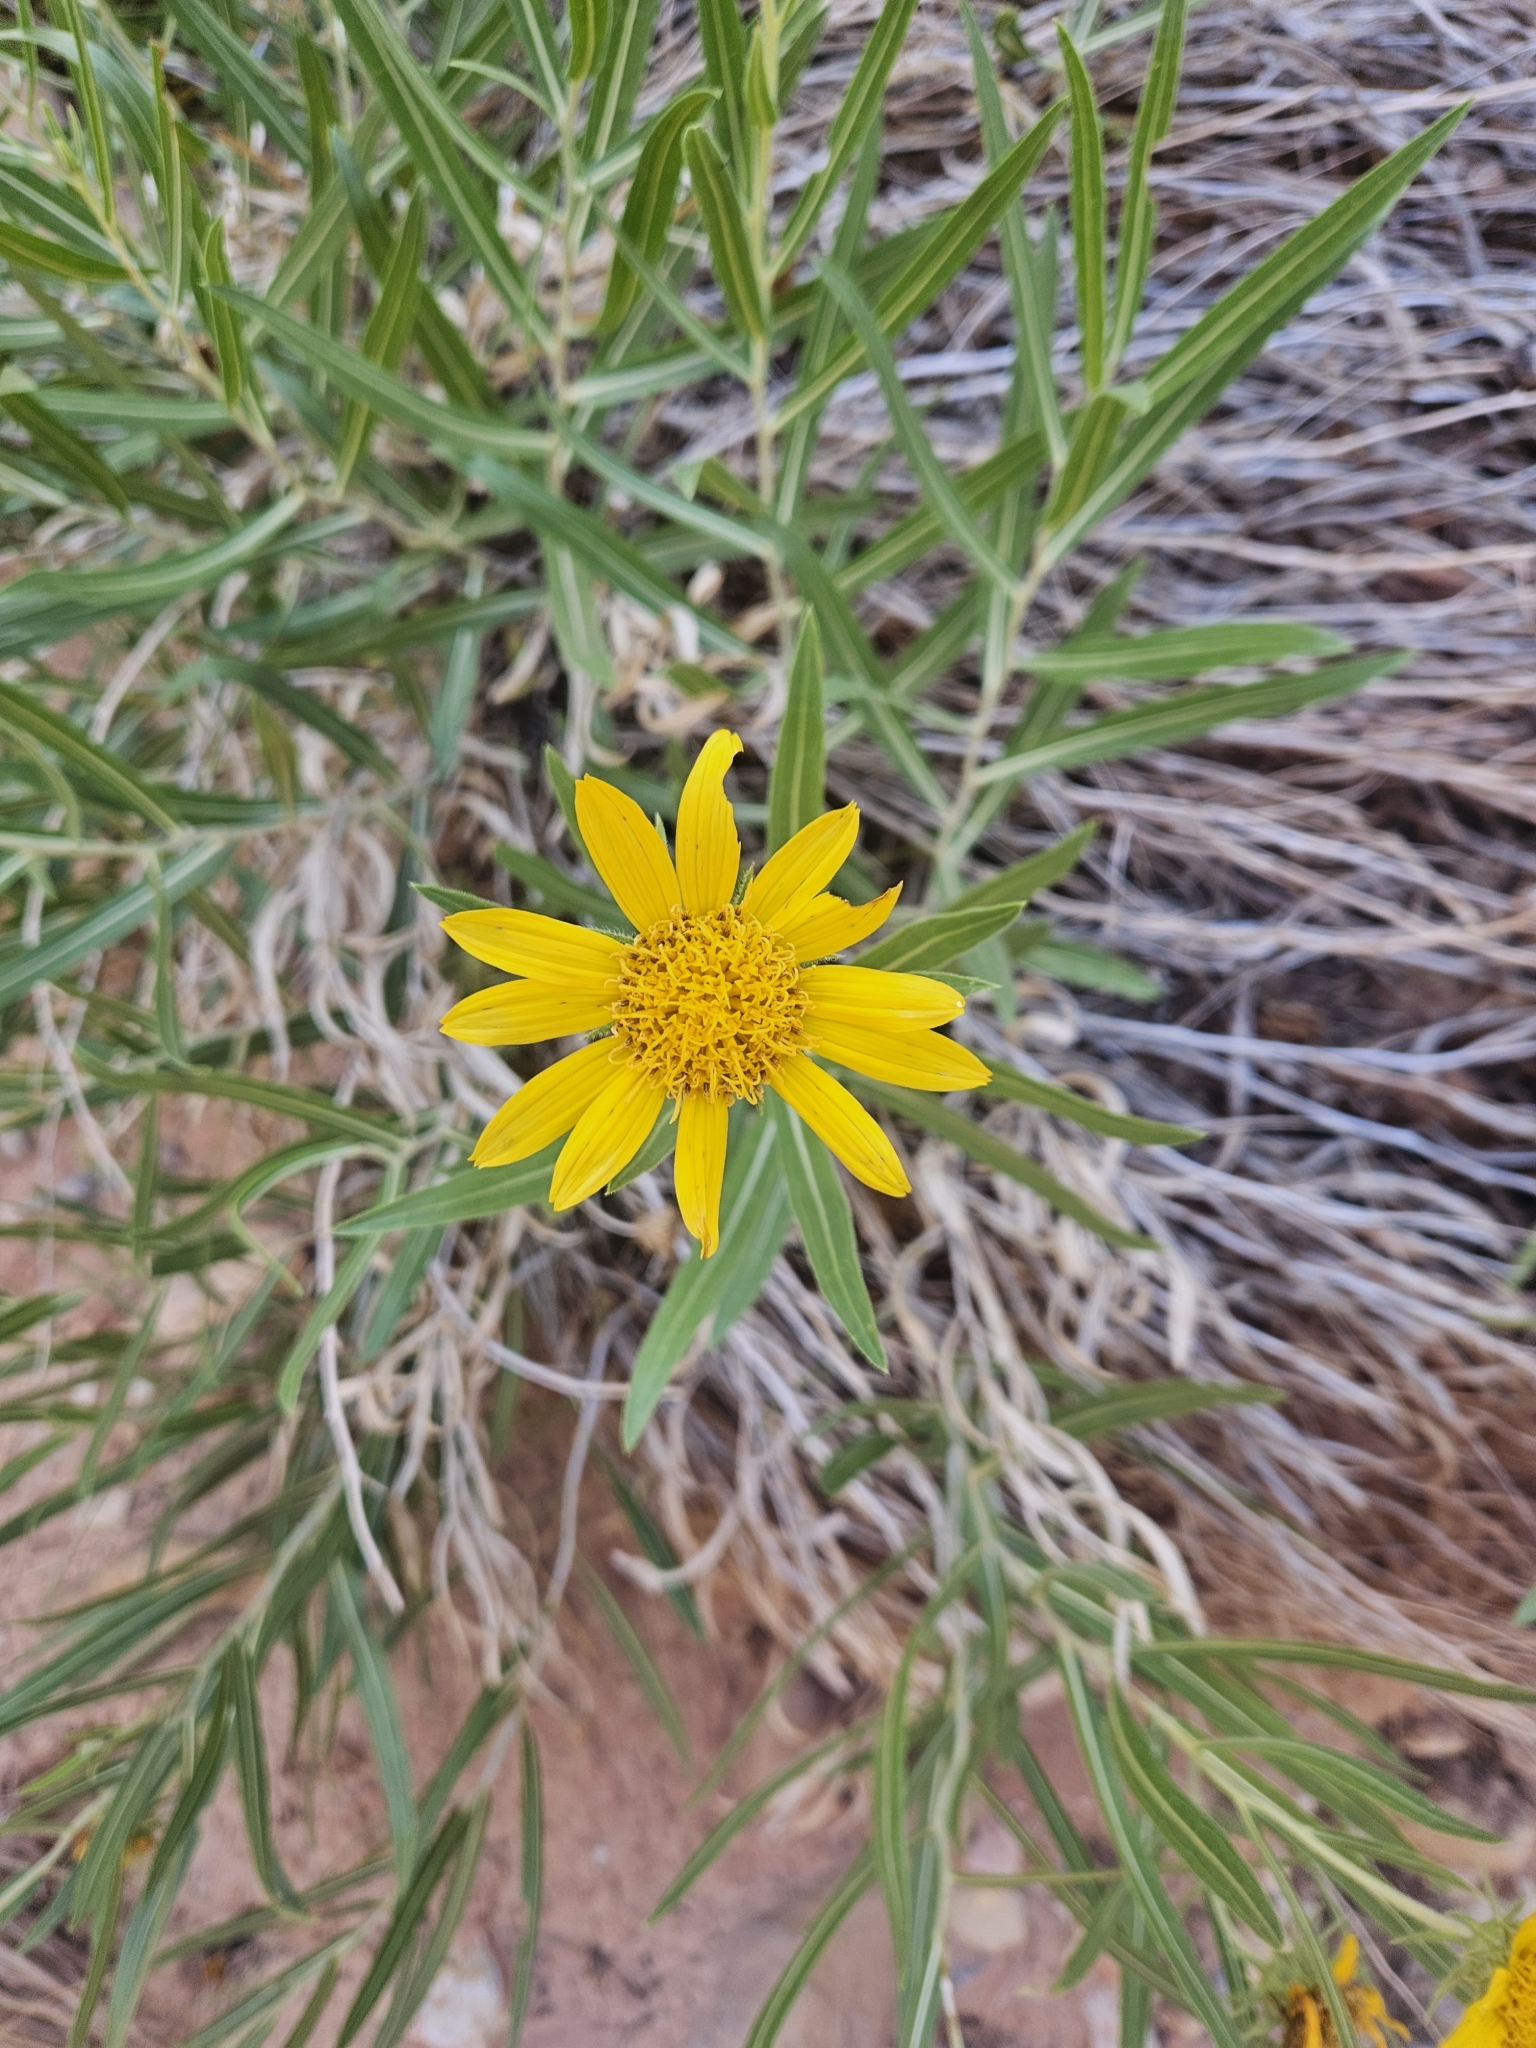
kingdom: Plantae
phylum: Tracheophyta
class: Magnoliopsida
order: Asterales
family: Asteraceae
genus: Scabrethia
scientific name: Scabrethia scabra
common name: Rough mules's-ears
